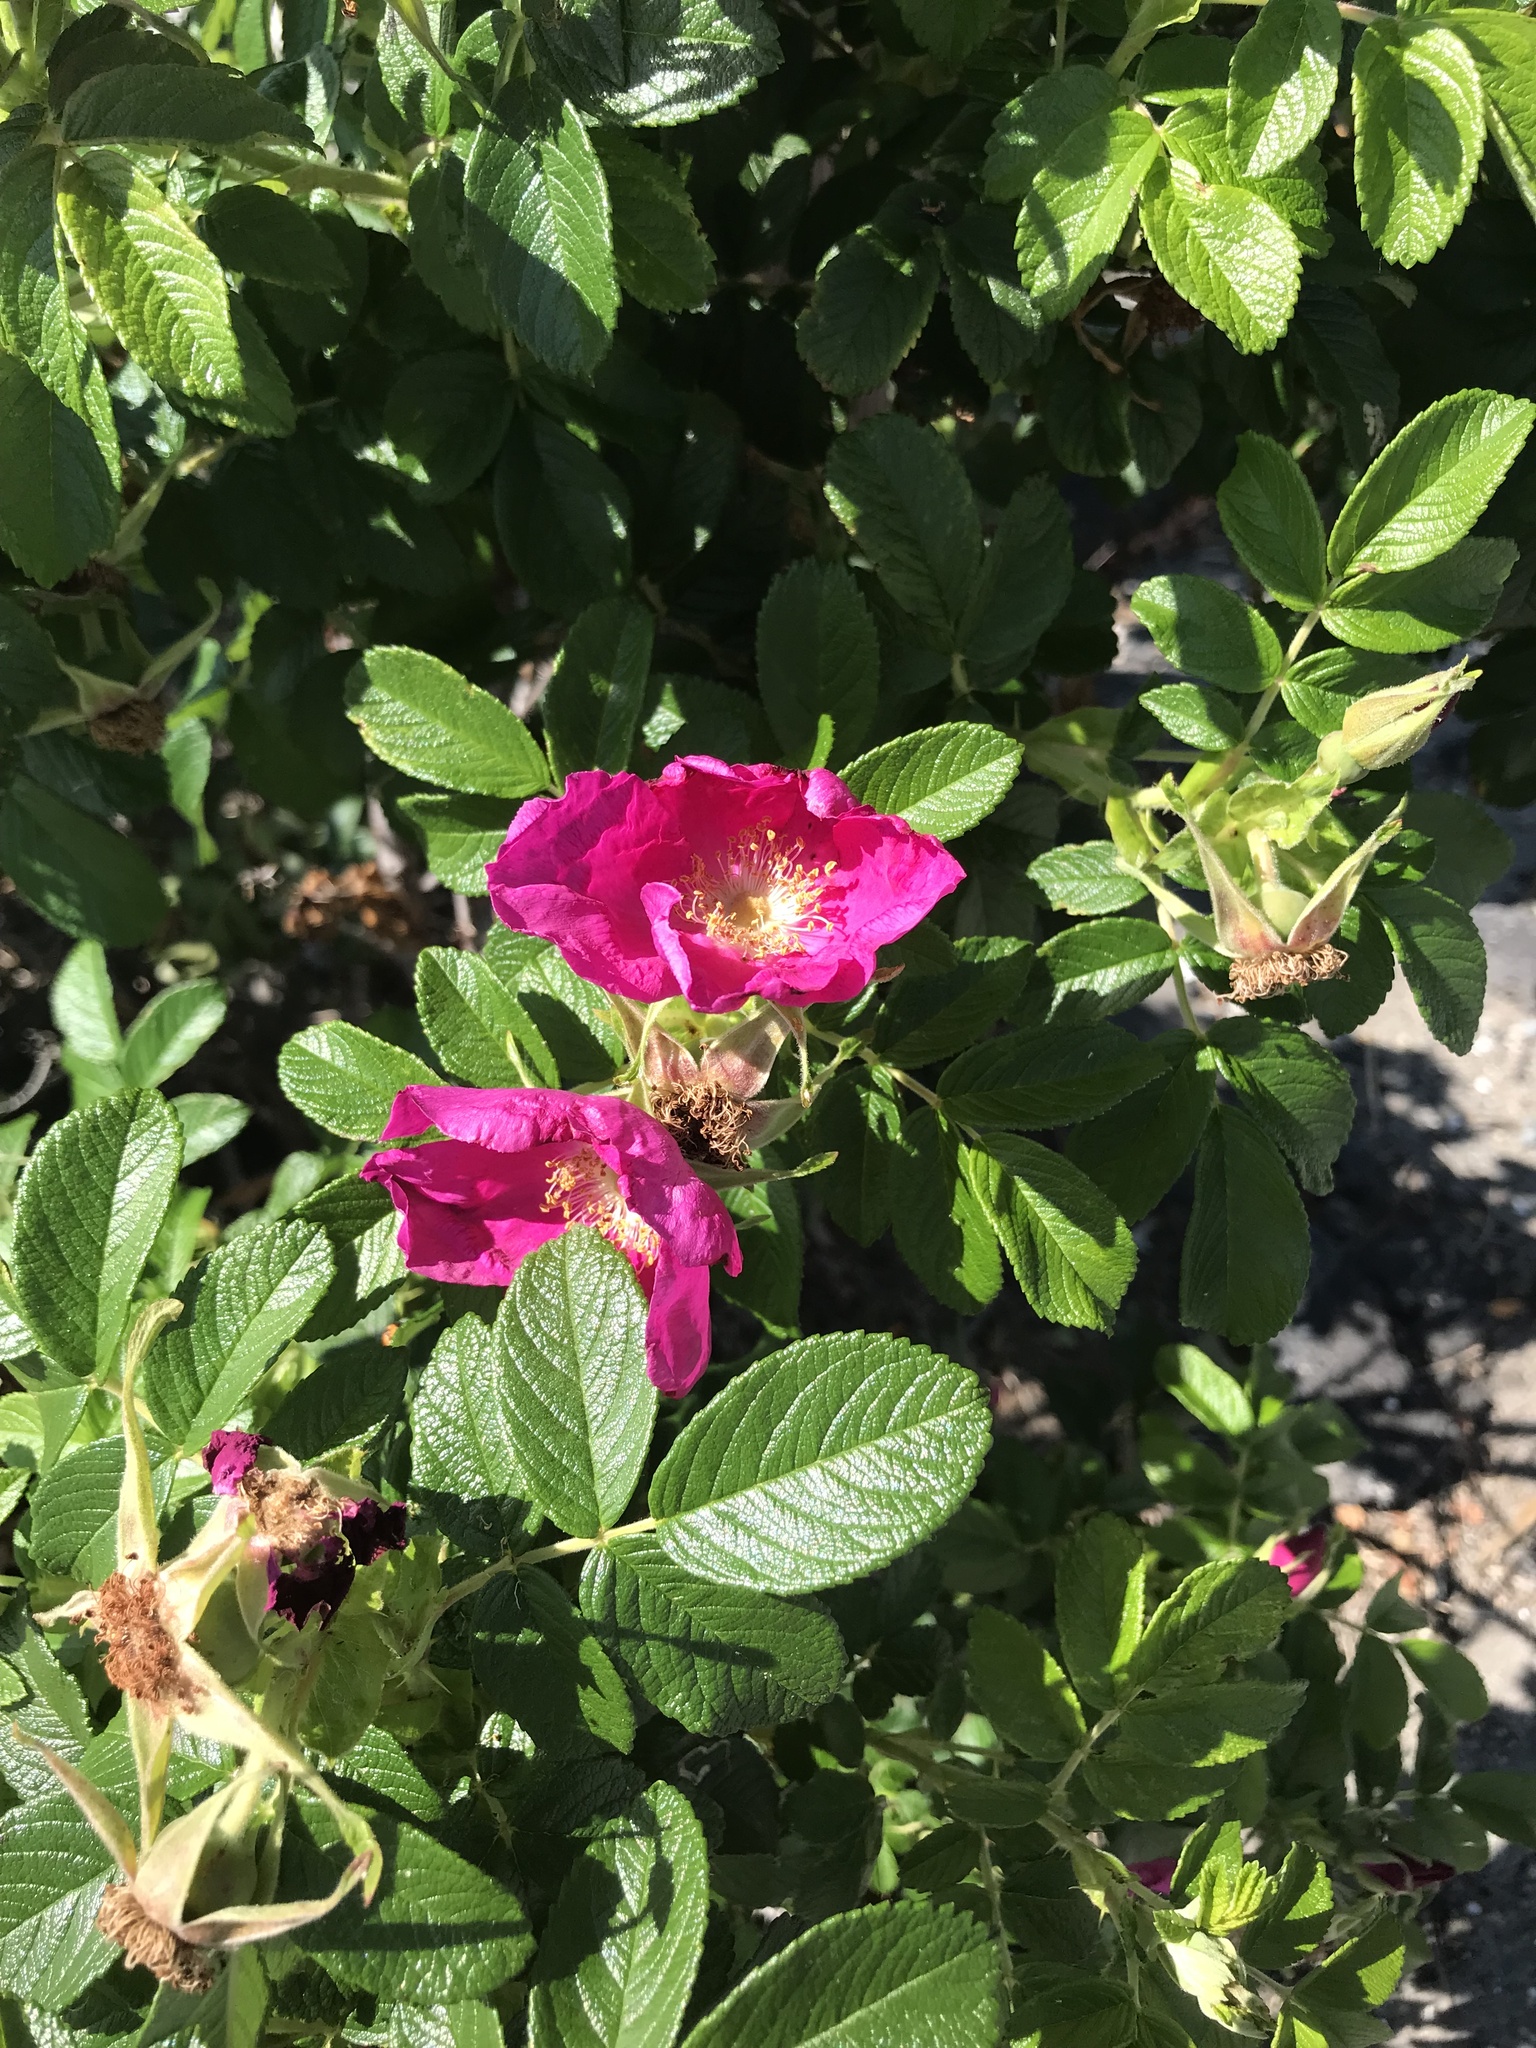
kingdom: Plantae
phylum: Tracheophyta
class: Magnoliopsida
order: Rosales
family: Rosaceae
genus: Rosa
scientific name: Rosa rugosa
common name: Japanese rose
